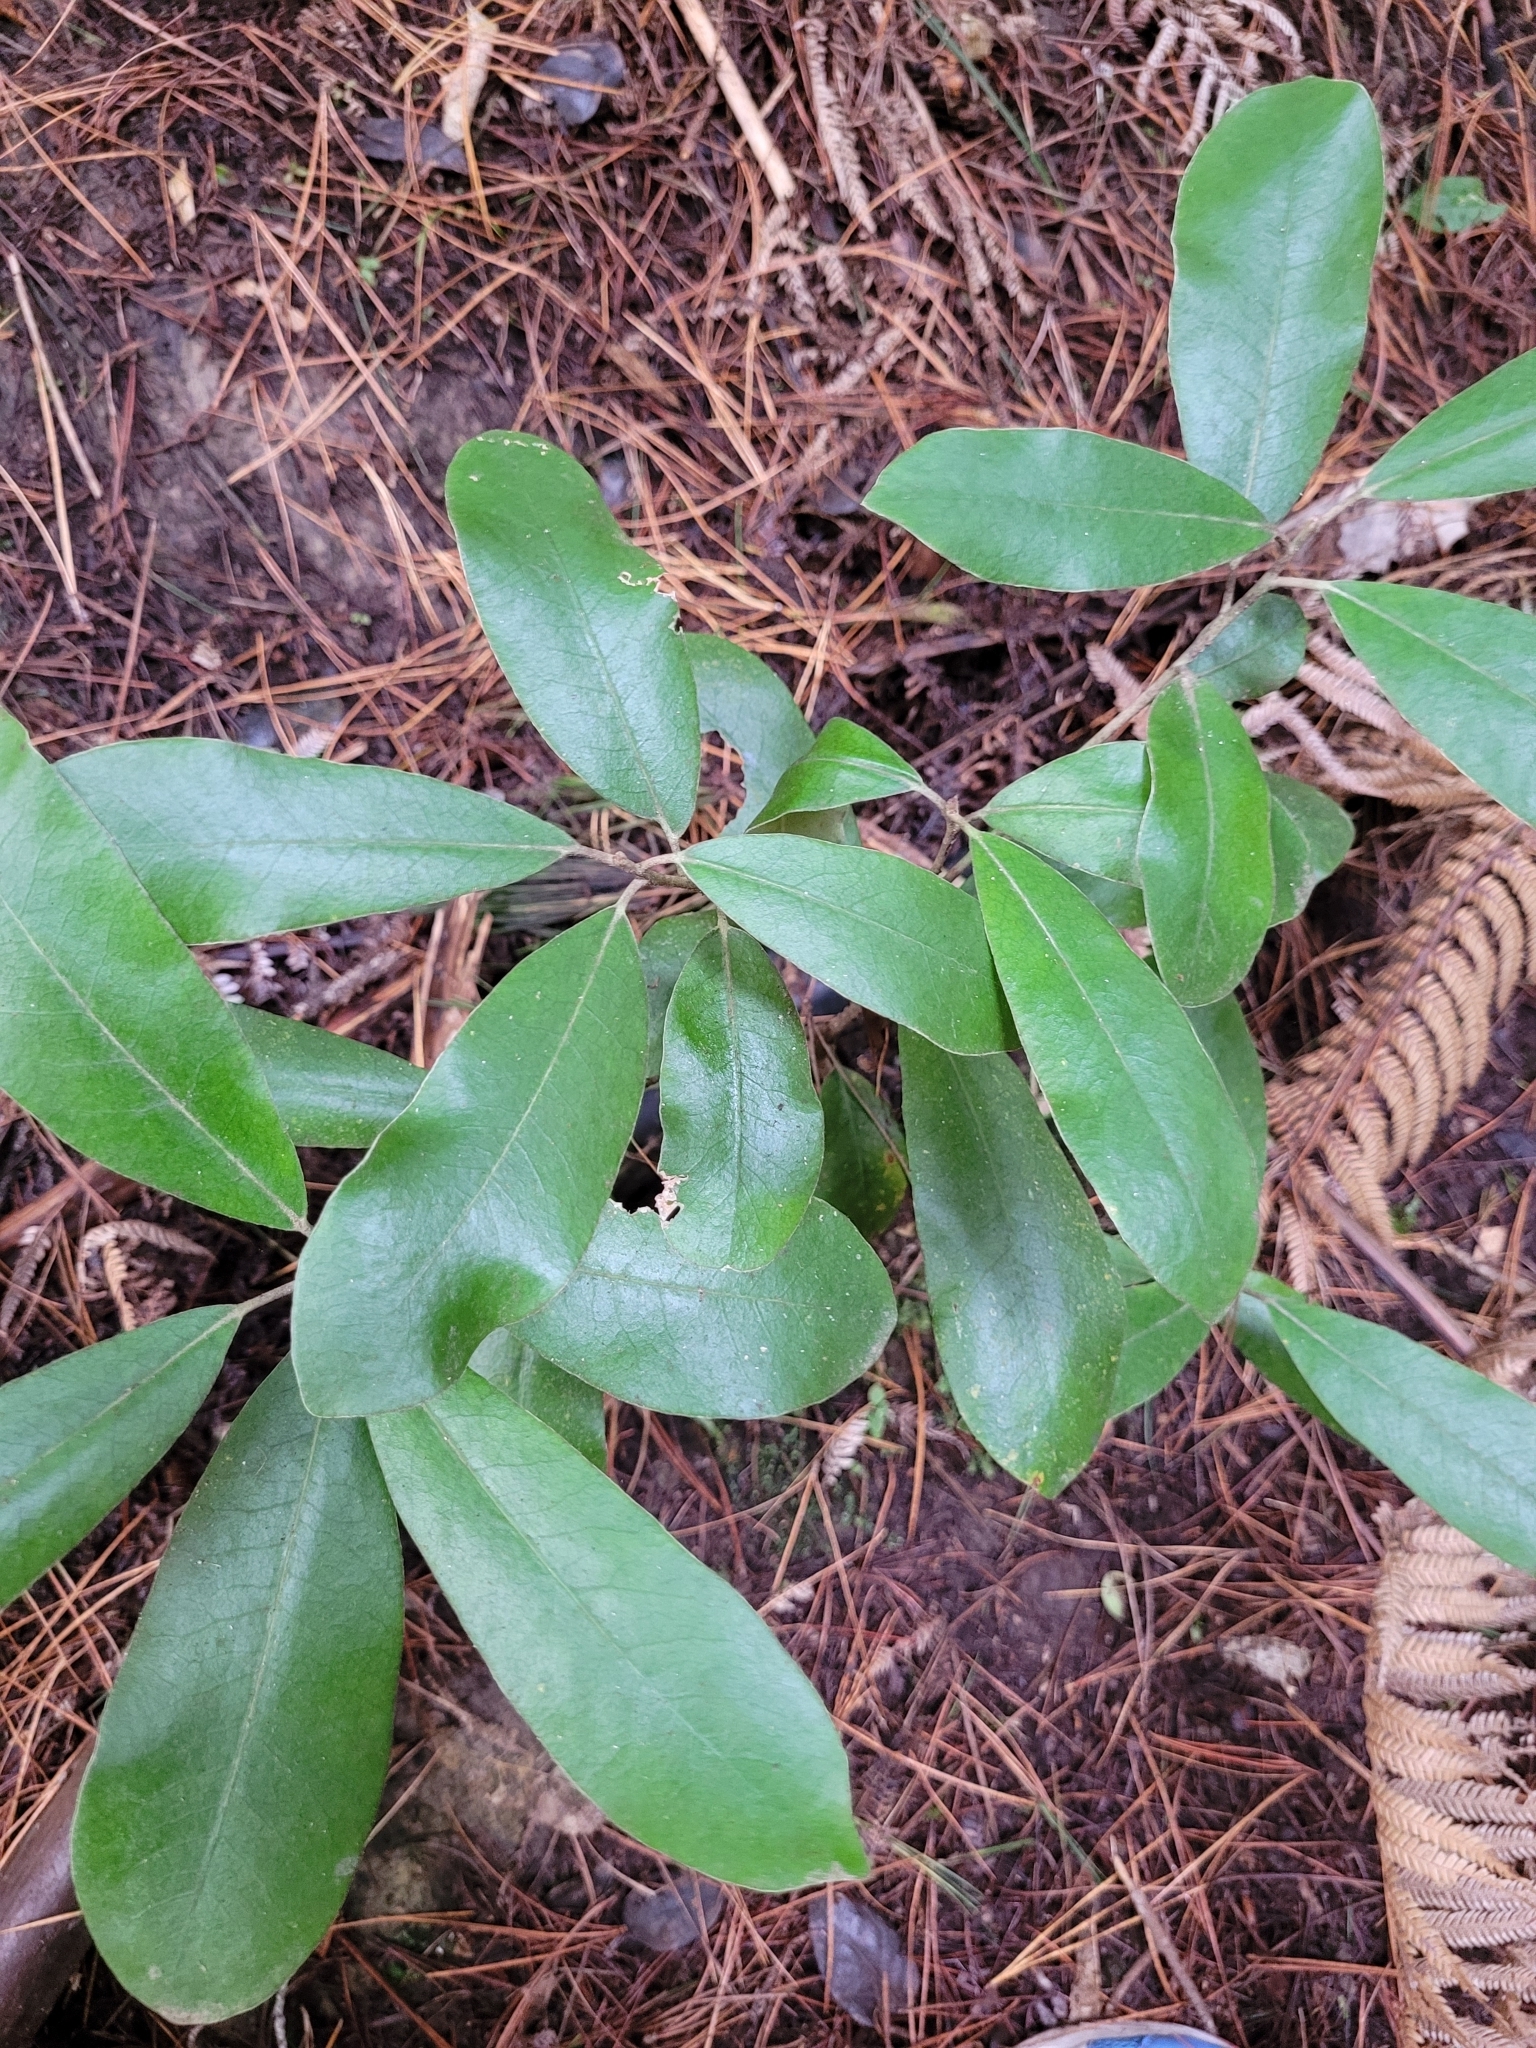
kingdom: Plantae
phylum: Tracheophyta
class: Magnoliopsida
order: Apiales
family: Pittosporaceae
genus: Pittosporum
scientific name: Pittosporum ralphii
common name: Ralph's desertwillow
